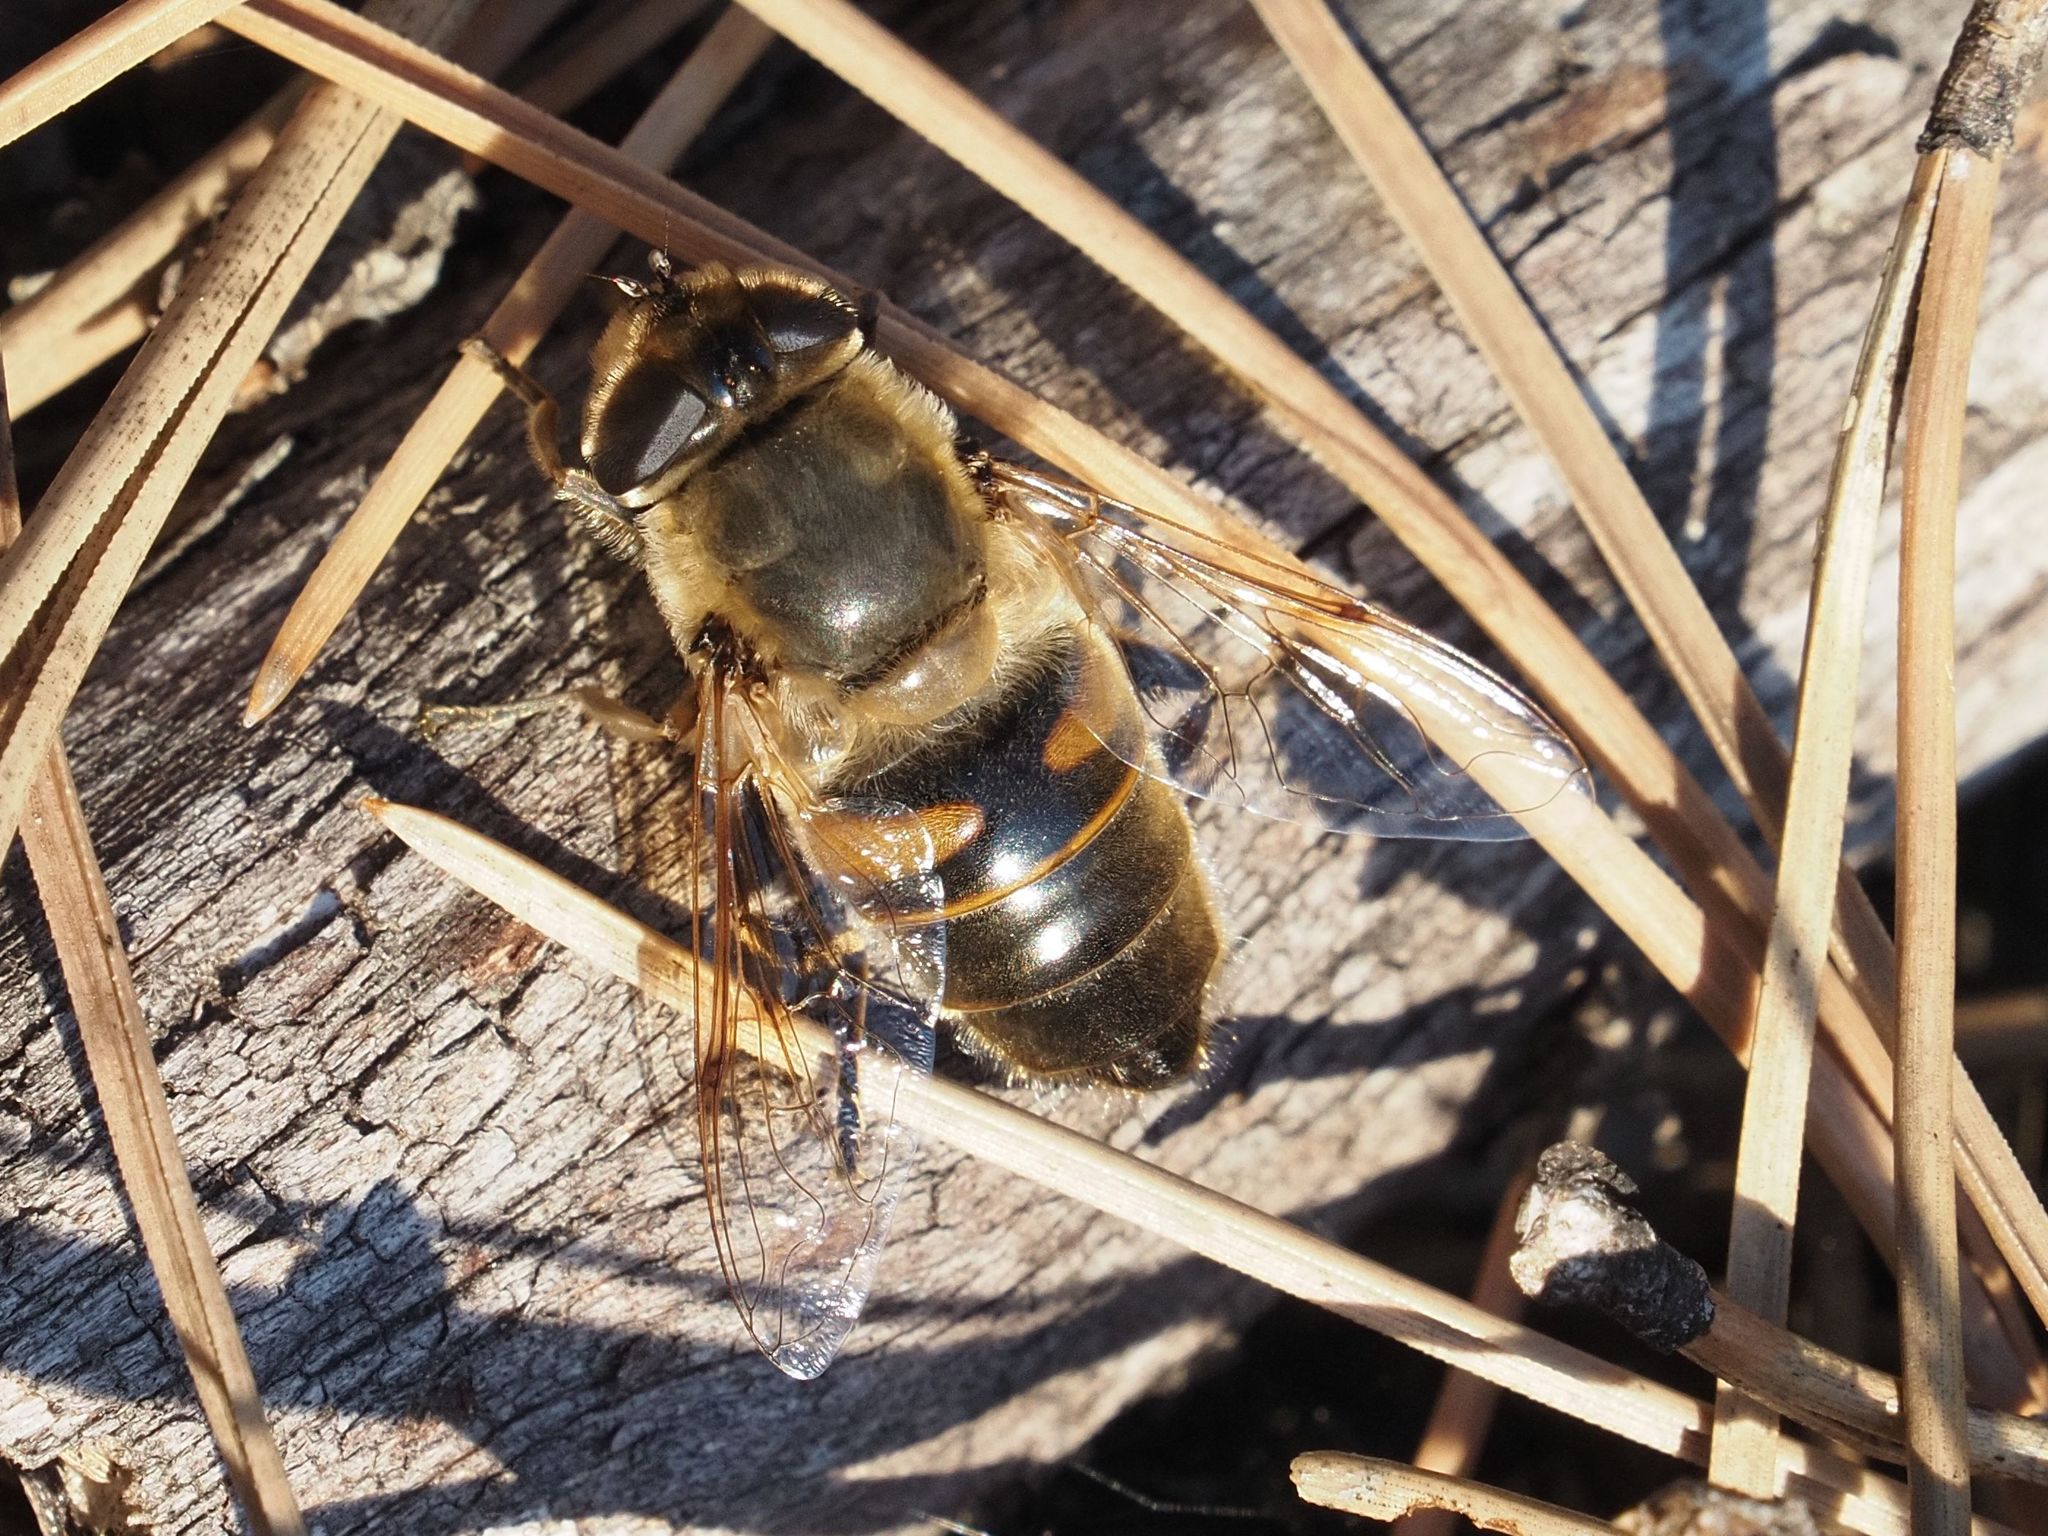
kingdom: Animalia
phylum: Arthropoda
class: Insecta
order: Diptera
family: Syrphidae
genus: Eristalis
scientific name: Eristalis tenax
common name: Drone fly
